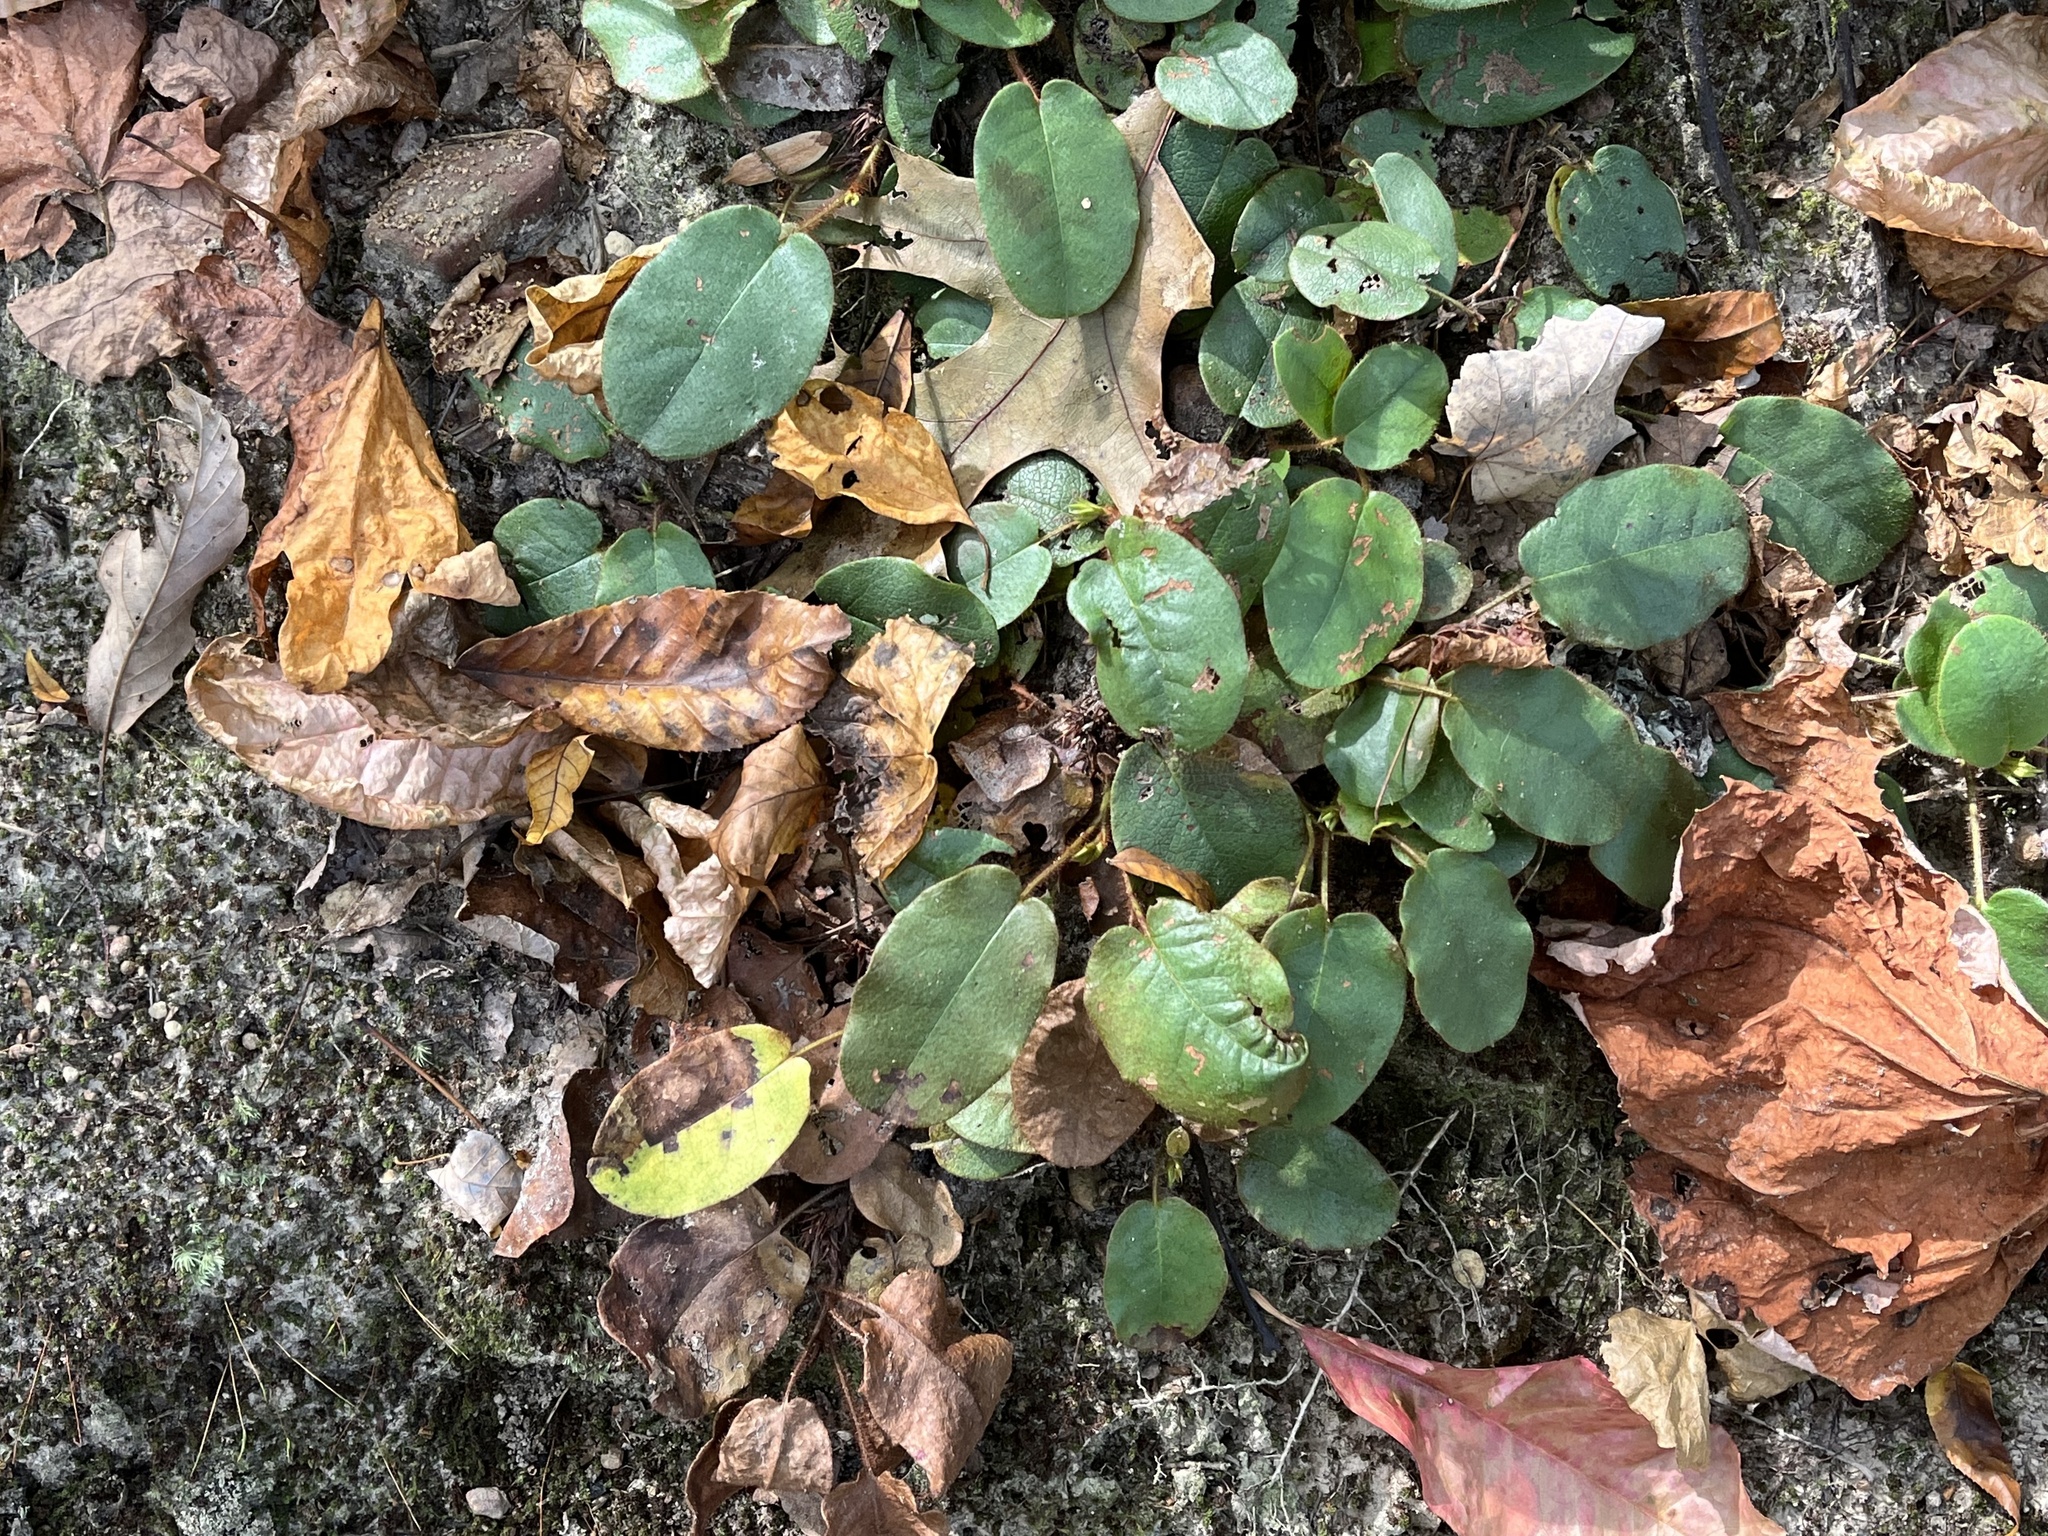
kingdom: Plantae
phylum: Tracheophyta
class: Magnoliopsida
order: Ericales
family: Ericaceae
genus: Epigaea
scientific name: Epigaea repens
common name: Gravelroot
